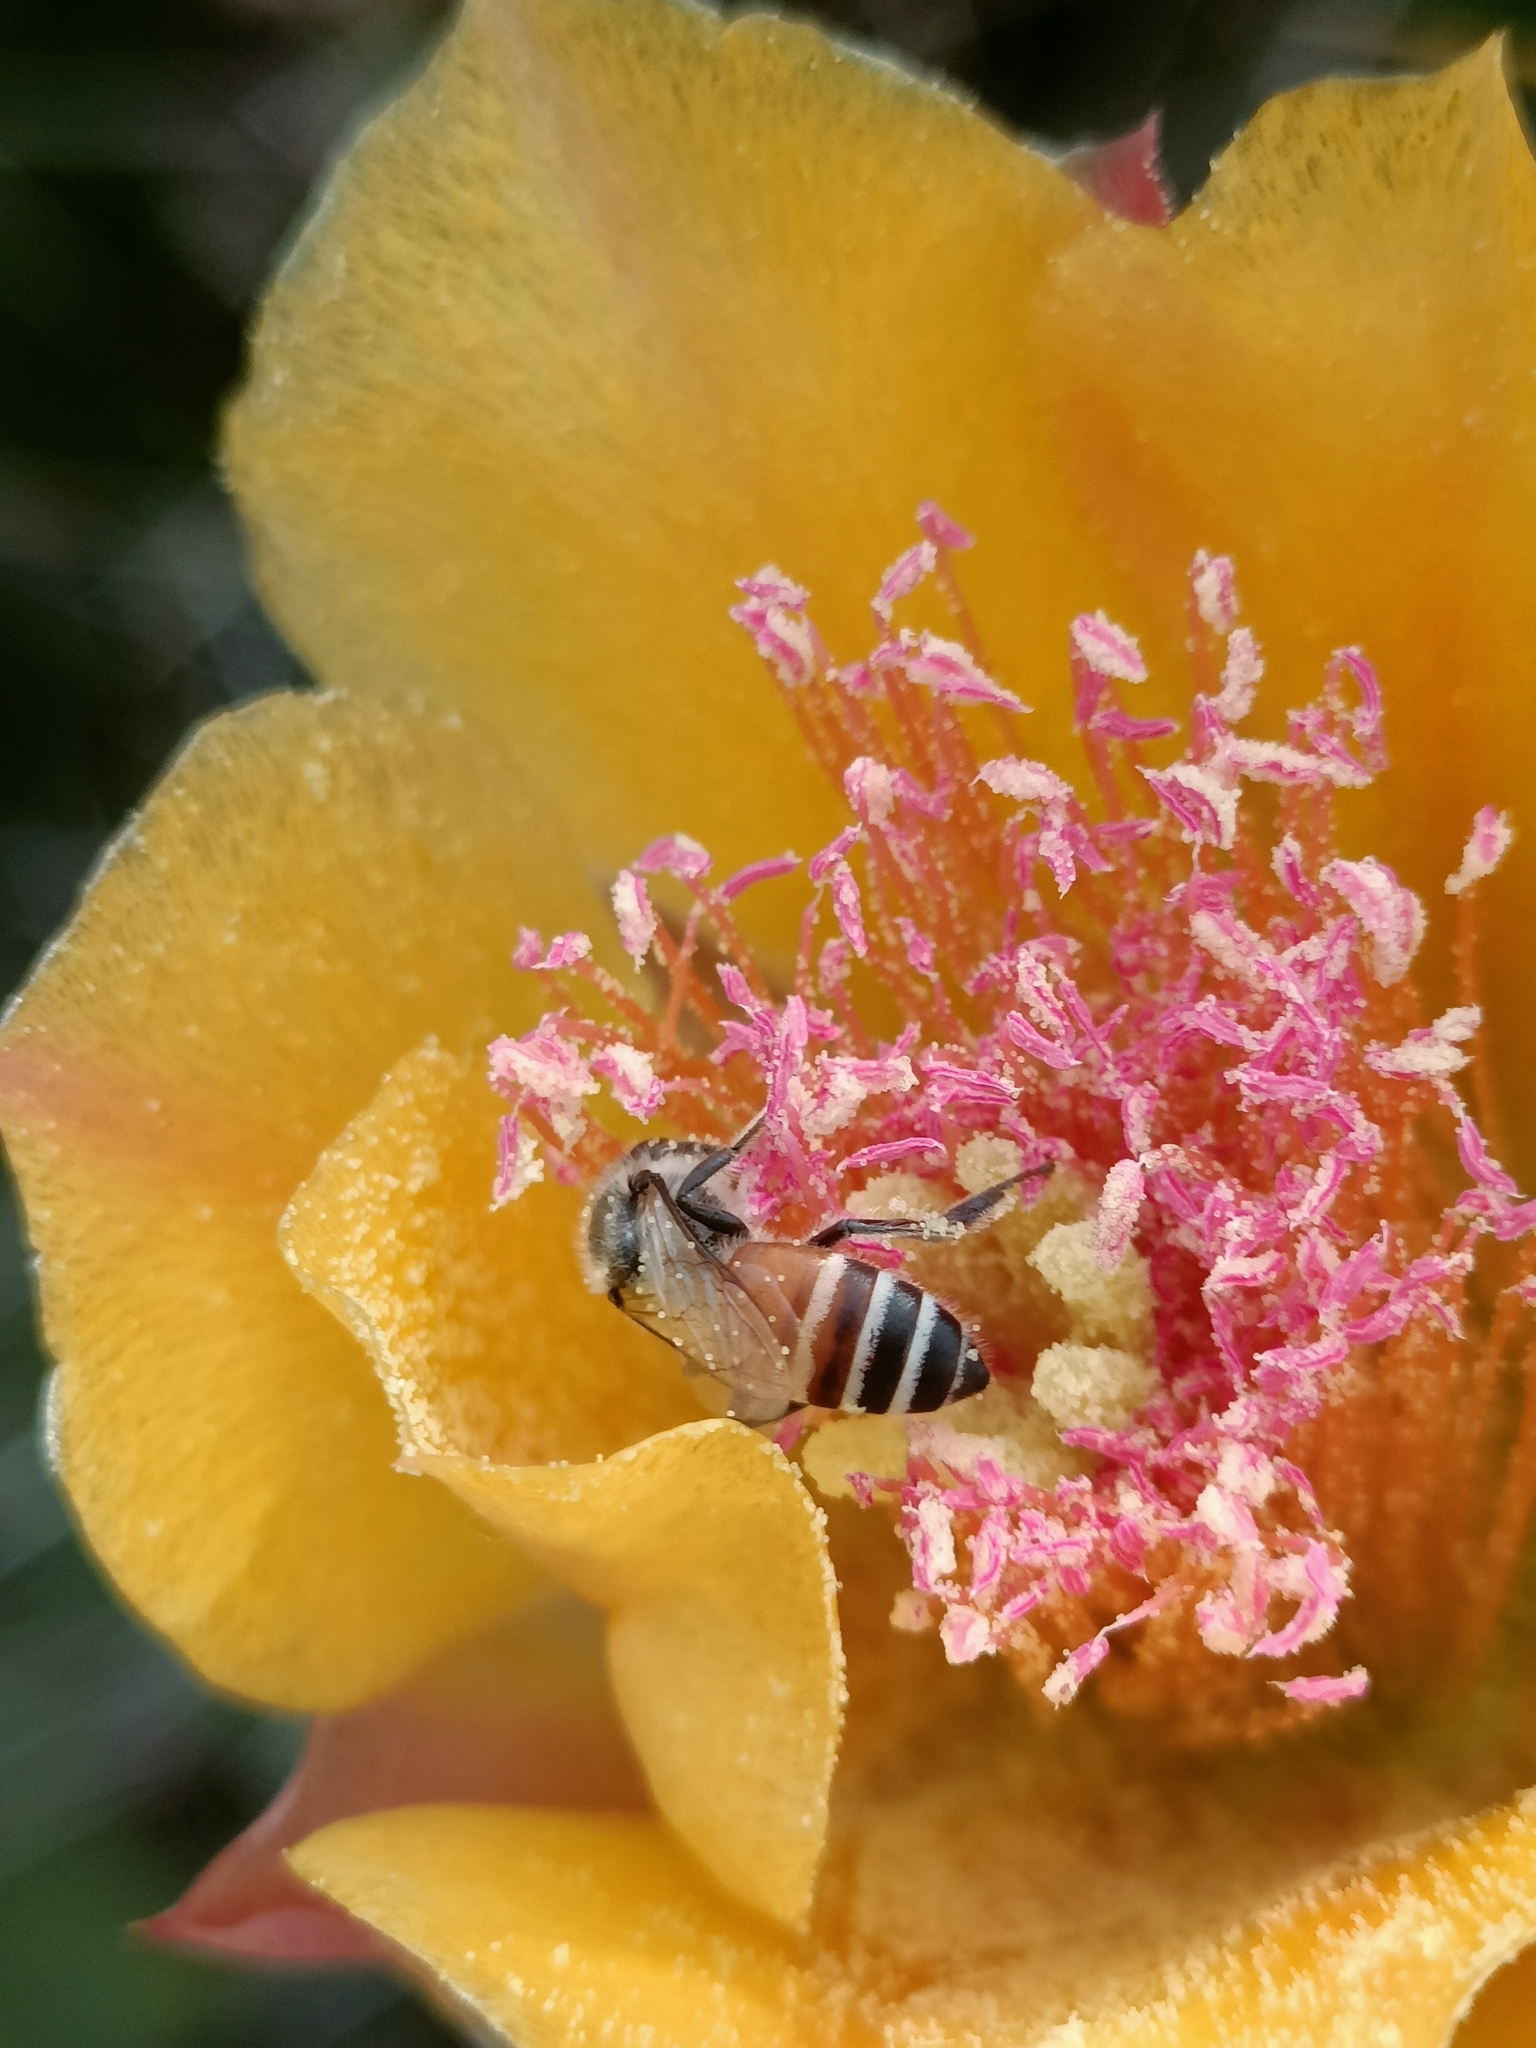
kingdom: Animalia
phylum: Arthropoda
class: Insecta
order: Hymenoptera
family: Apidae
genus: Apis
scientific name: Apis florea
